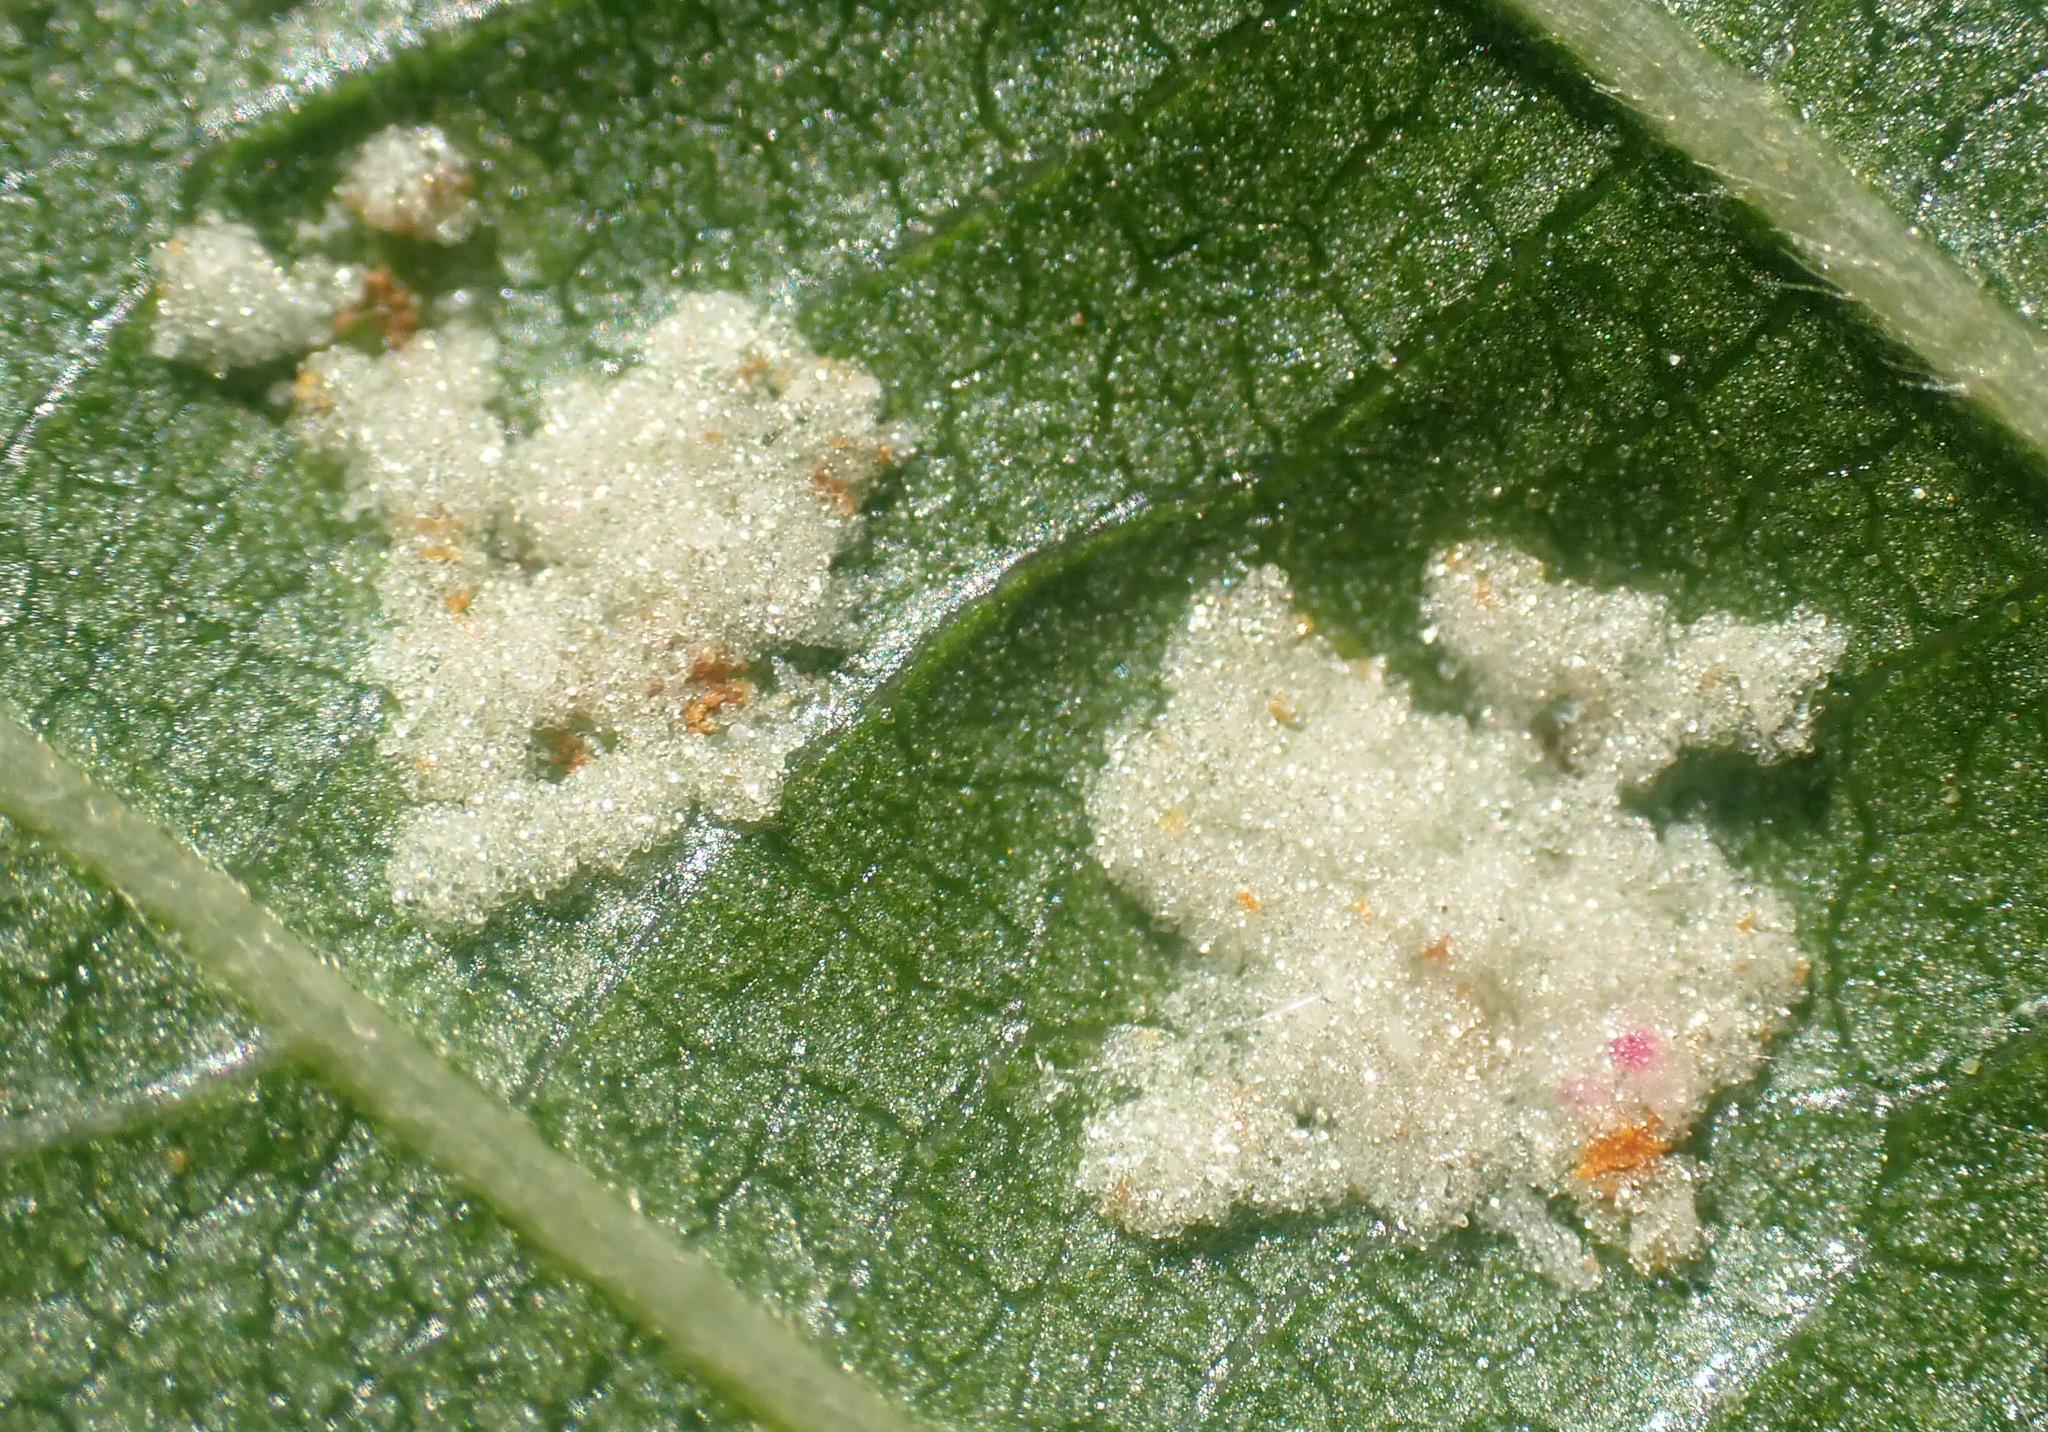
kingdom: Animalia
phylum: Arthropoda
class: Arachnida
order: Trombidiformes
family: Eriophyidae
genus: Acalitus
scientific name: Acalitus brevitarsus
